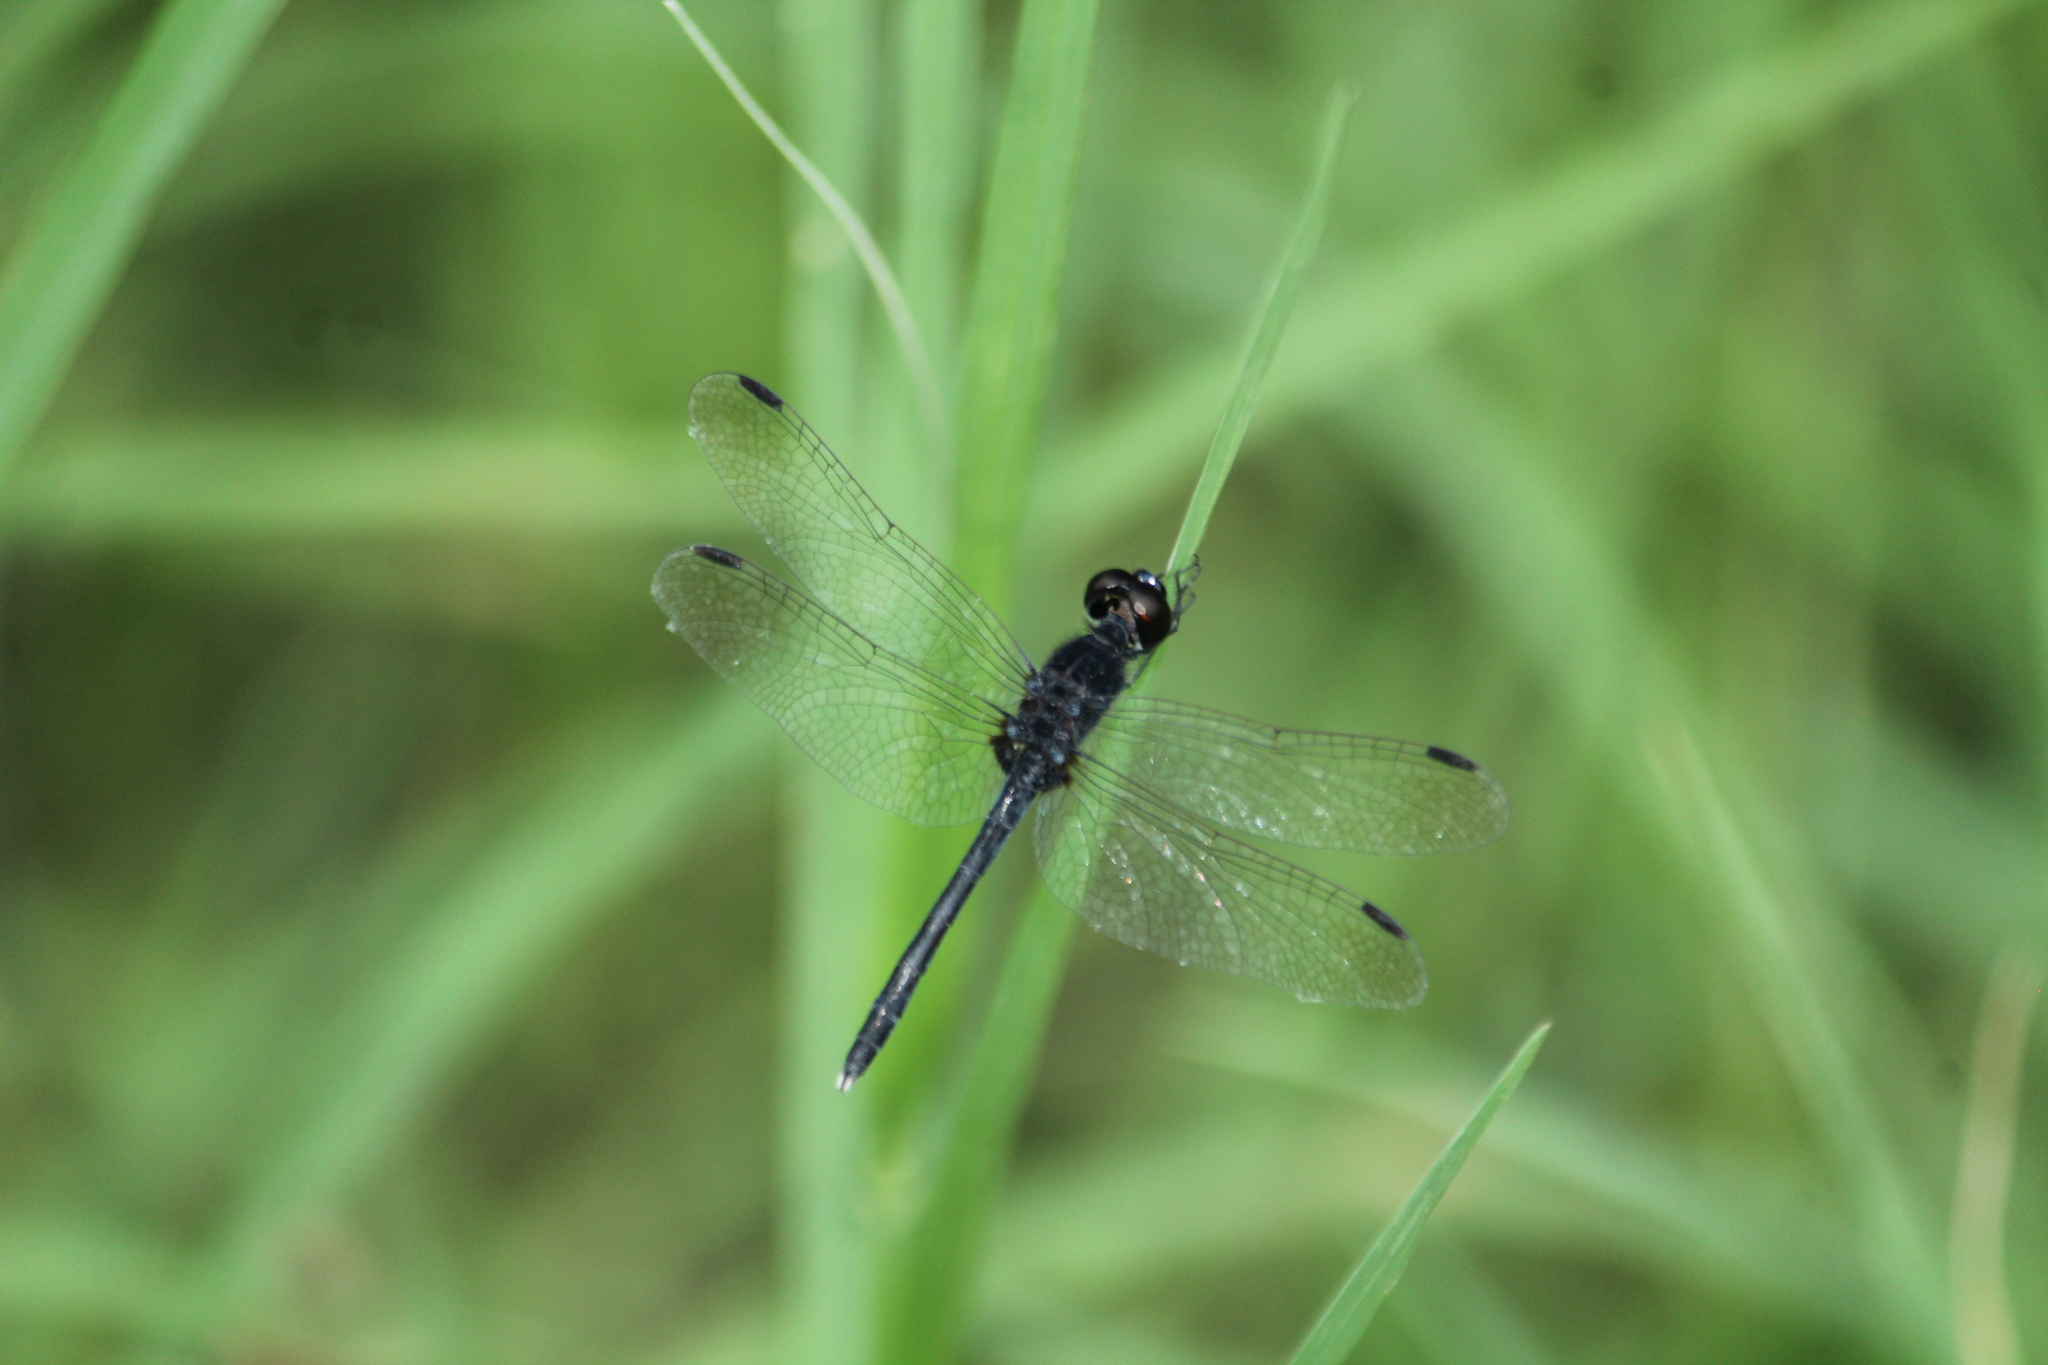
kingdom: Animalia
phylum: Arthropoda
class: Insecta
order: Odonata
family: Libellulidae
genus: Diplacodes
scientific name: Diplacodes lefebvrii
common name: Black percher
